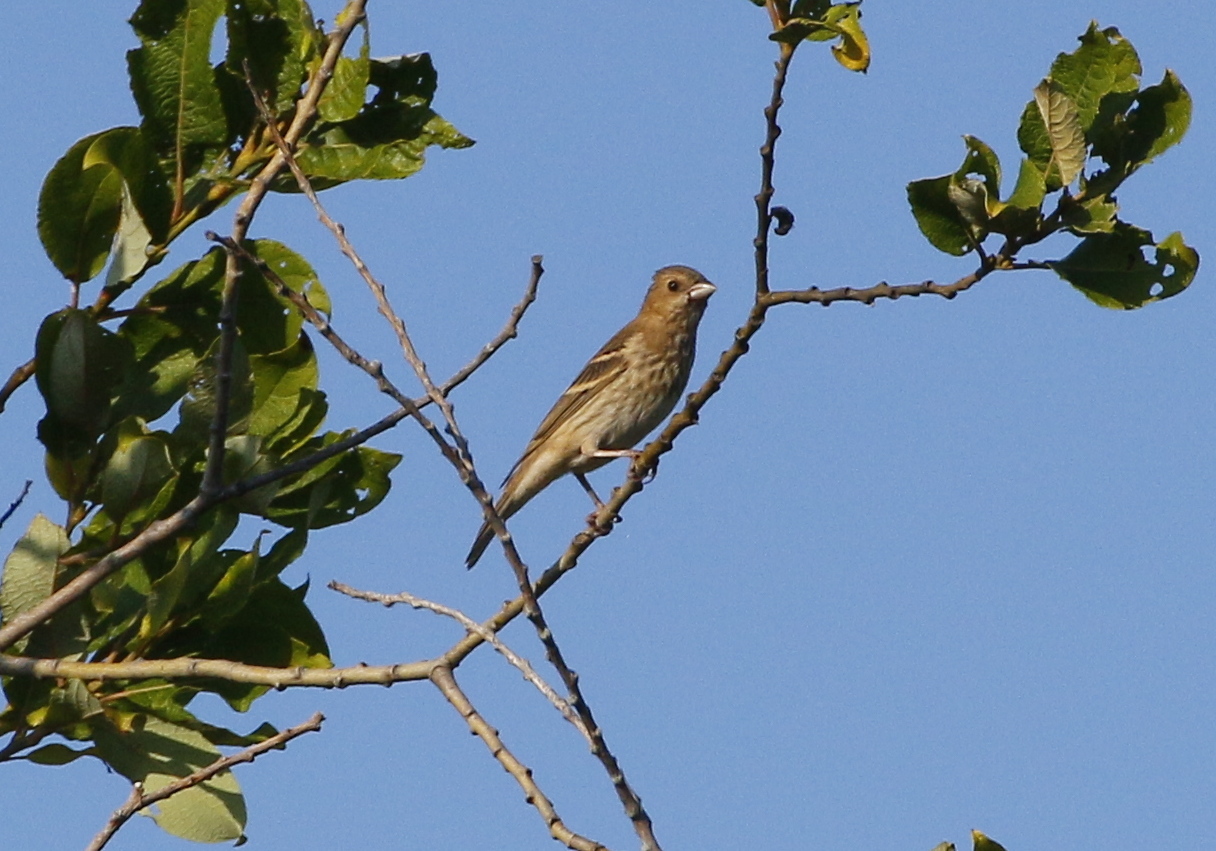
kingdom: Animalia
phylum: Chordata
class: Aves
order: Passeriformes
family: Fringillidae
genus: Carpodacus
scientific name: Carpodacus erythrinus
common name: Common rosefinch
